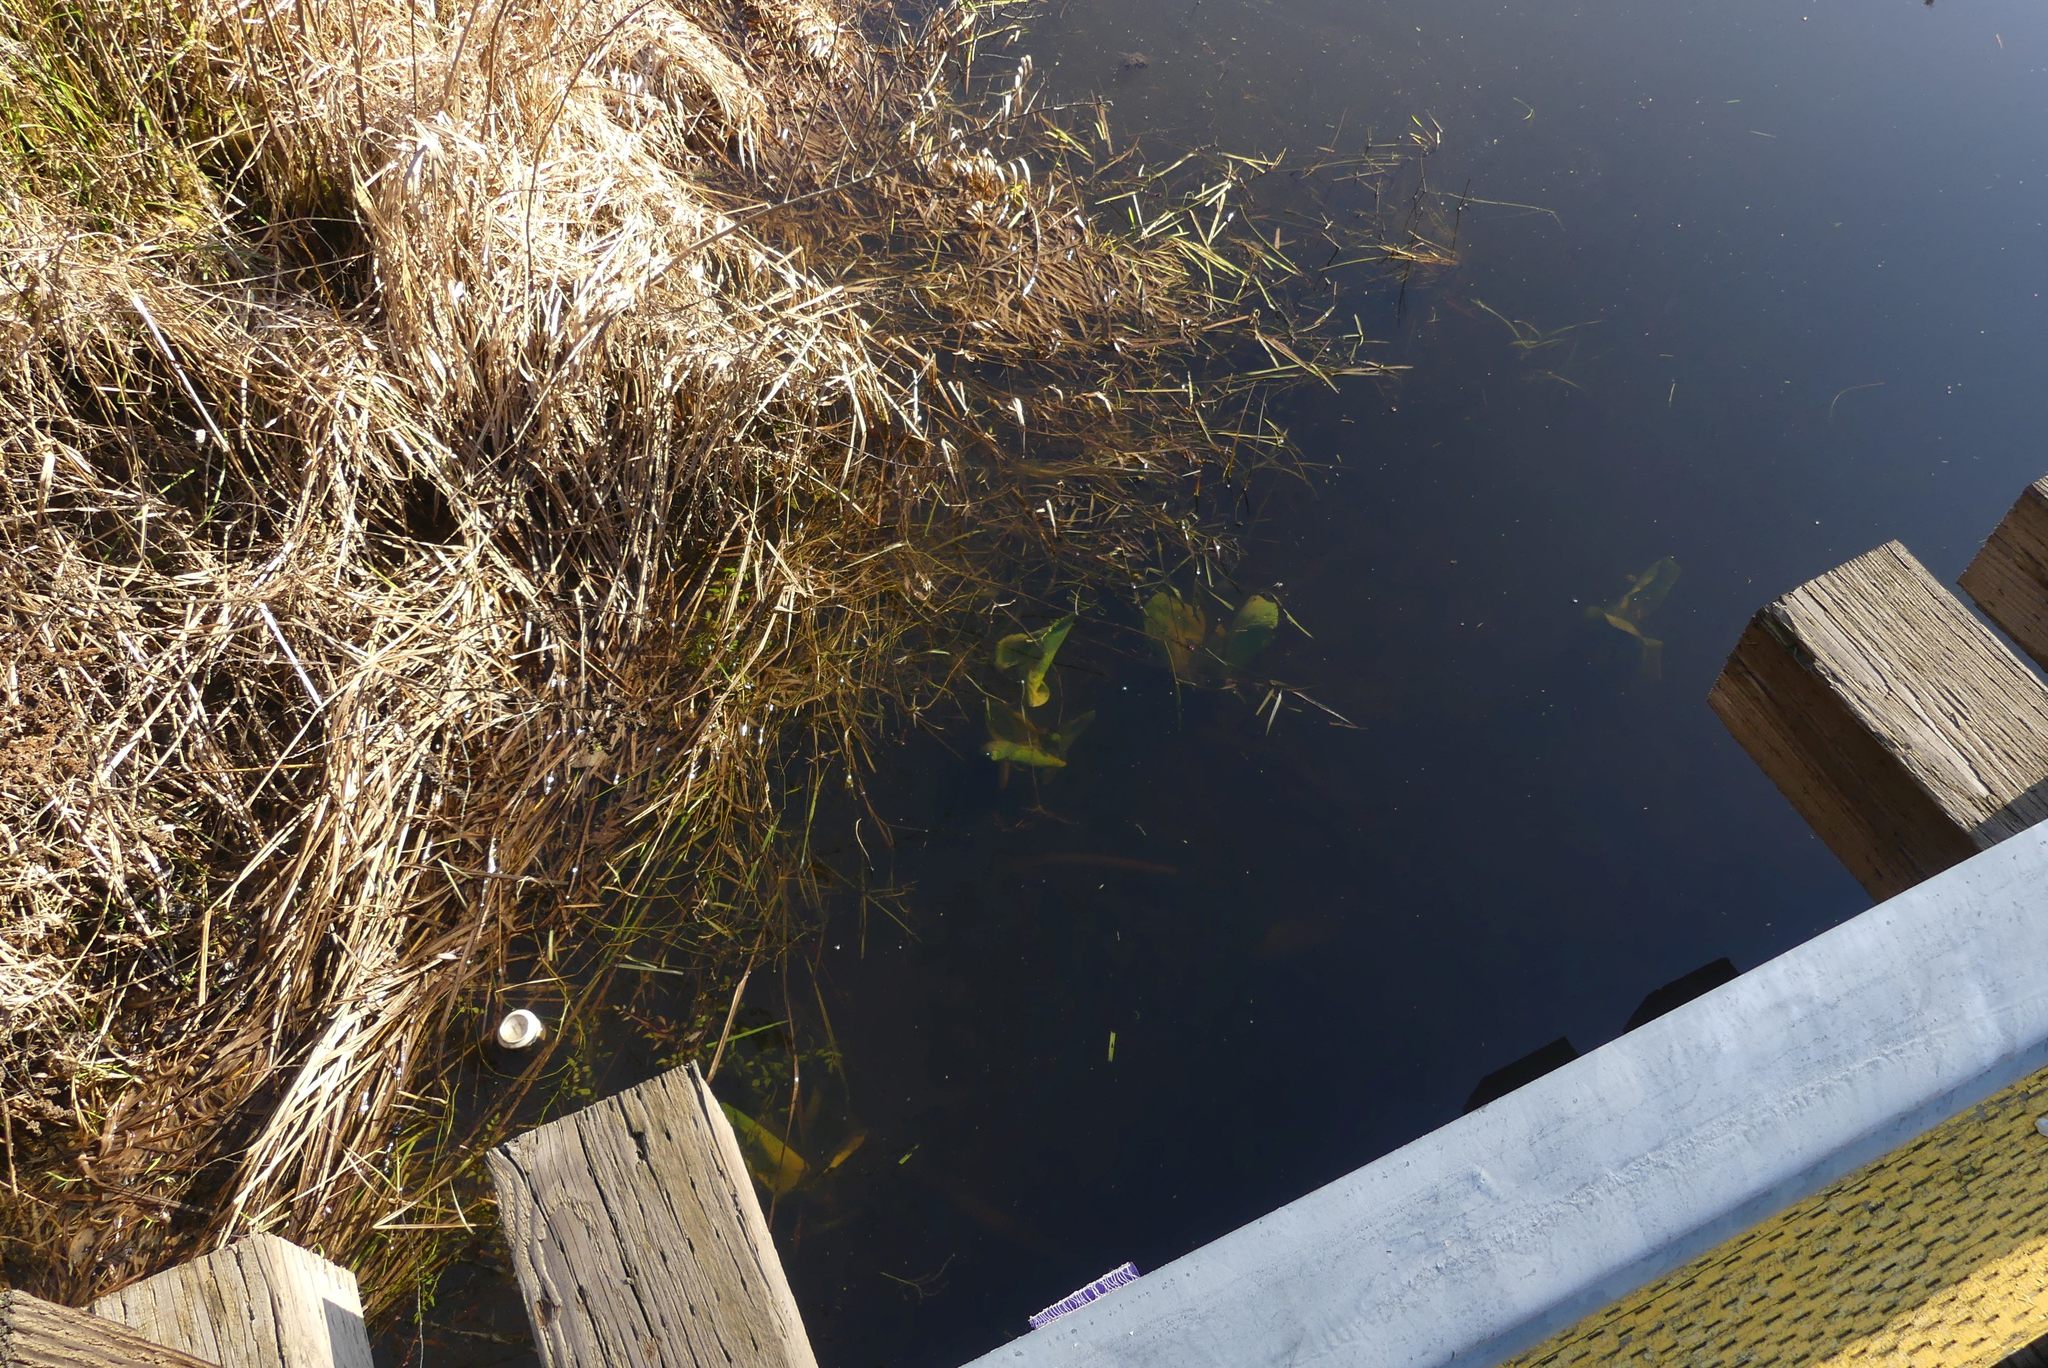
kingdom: Plantae
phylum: Tracheophyta
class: Magnoliopsida
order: Nymphaeales
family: Nymphaeaceae
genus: Nuphar
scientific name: Nuphar polysepala
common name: Rocky mountain cow-lily
